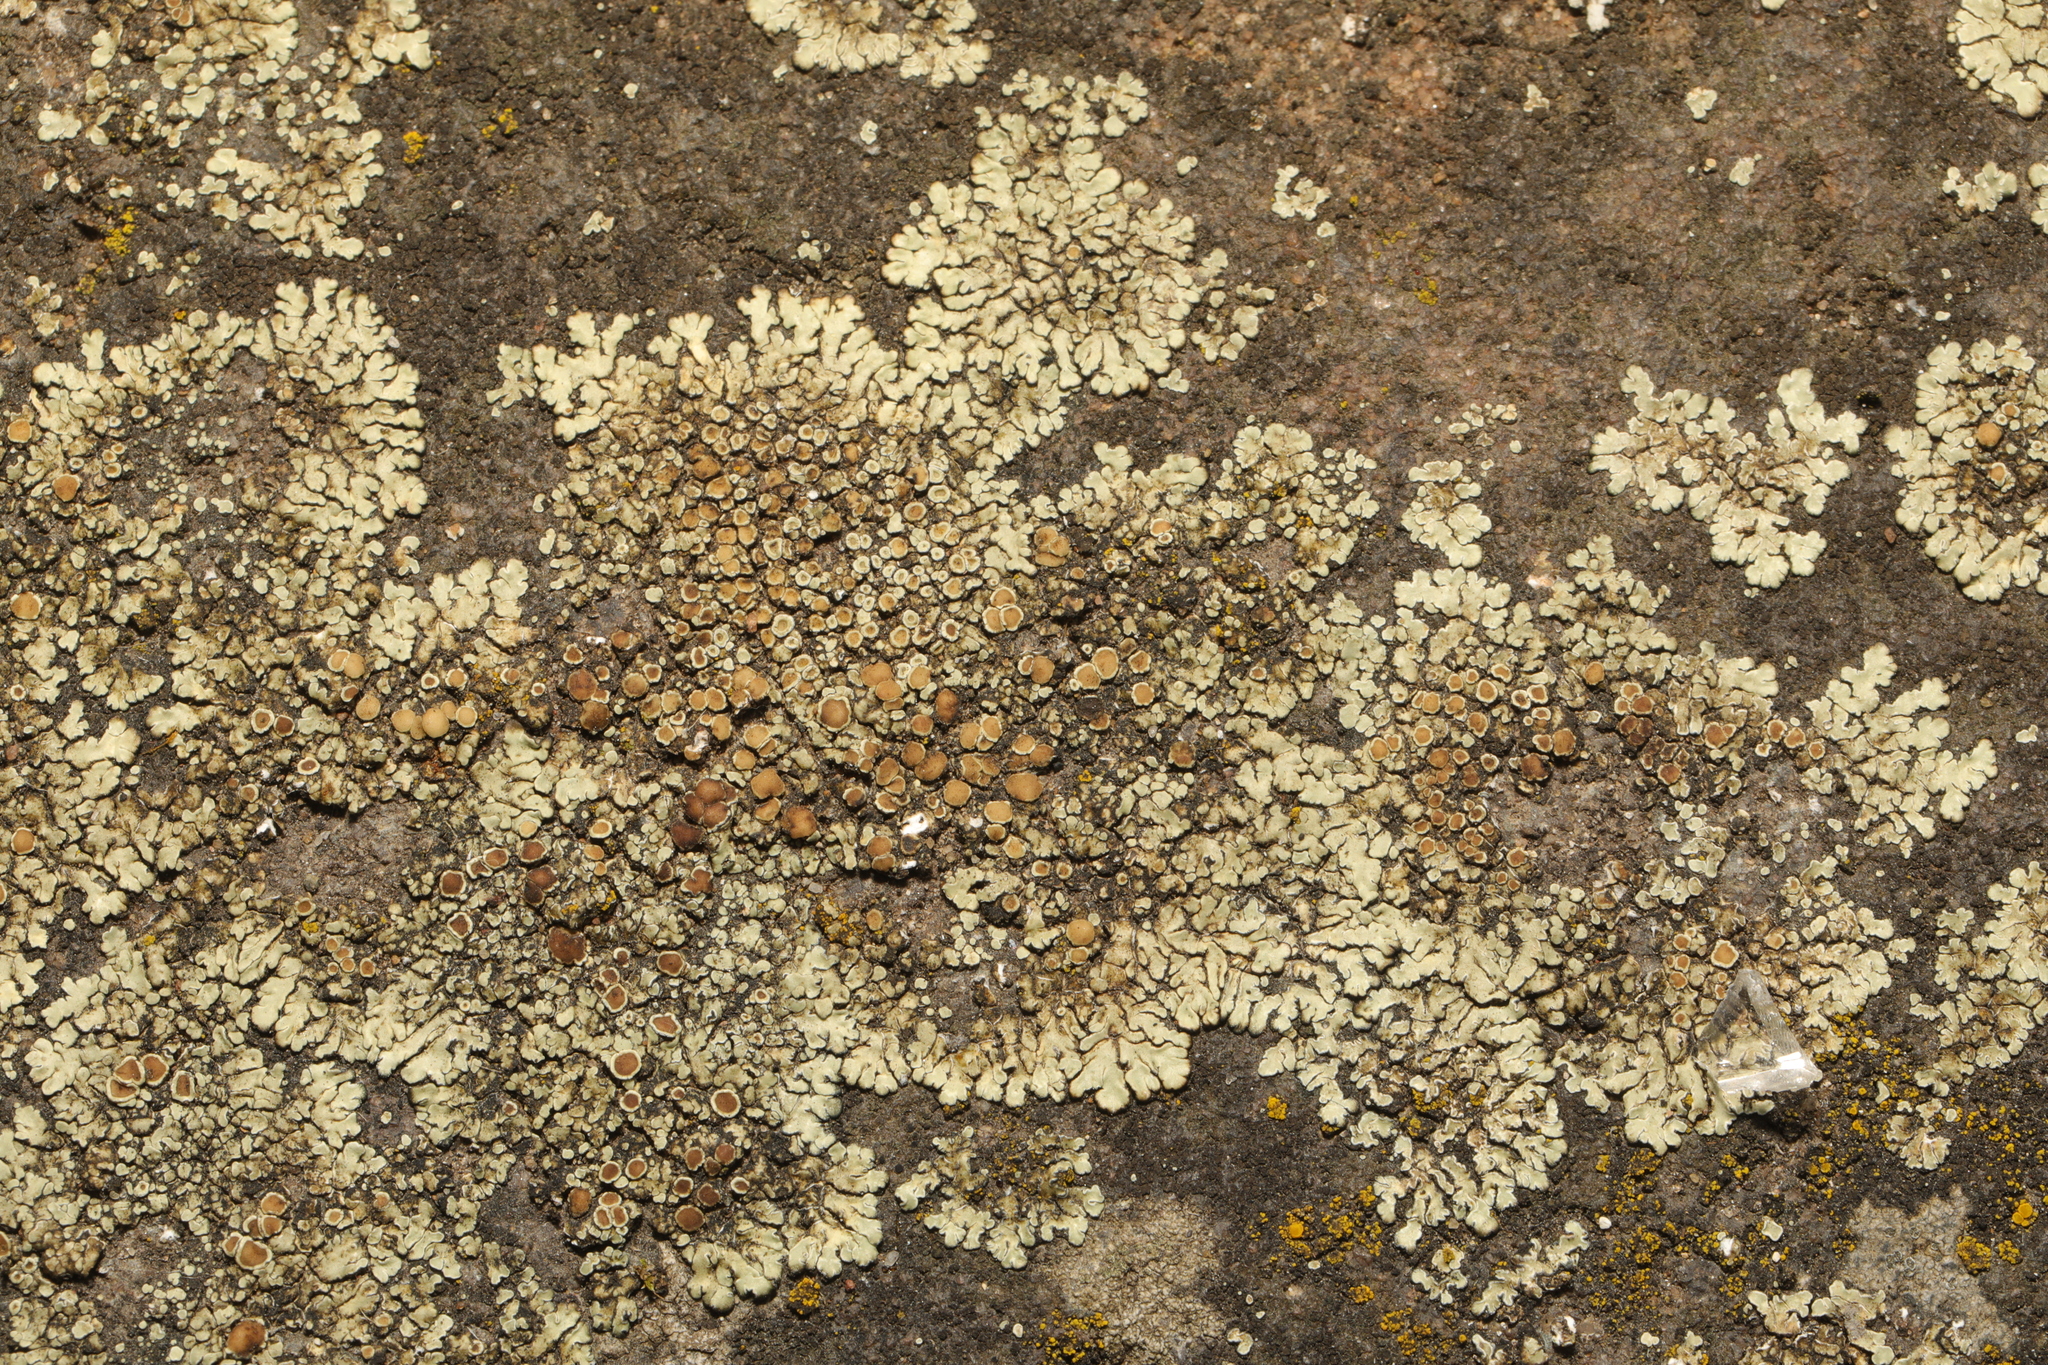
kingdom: Fungi
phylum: Ascomycota
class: Lecanoromycetes
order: Lecanorales
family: Lecanoraceae
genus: Protoparmeliopsis
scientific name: Protoparmeliopsis muralis
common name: Stonewall rim lichen
